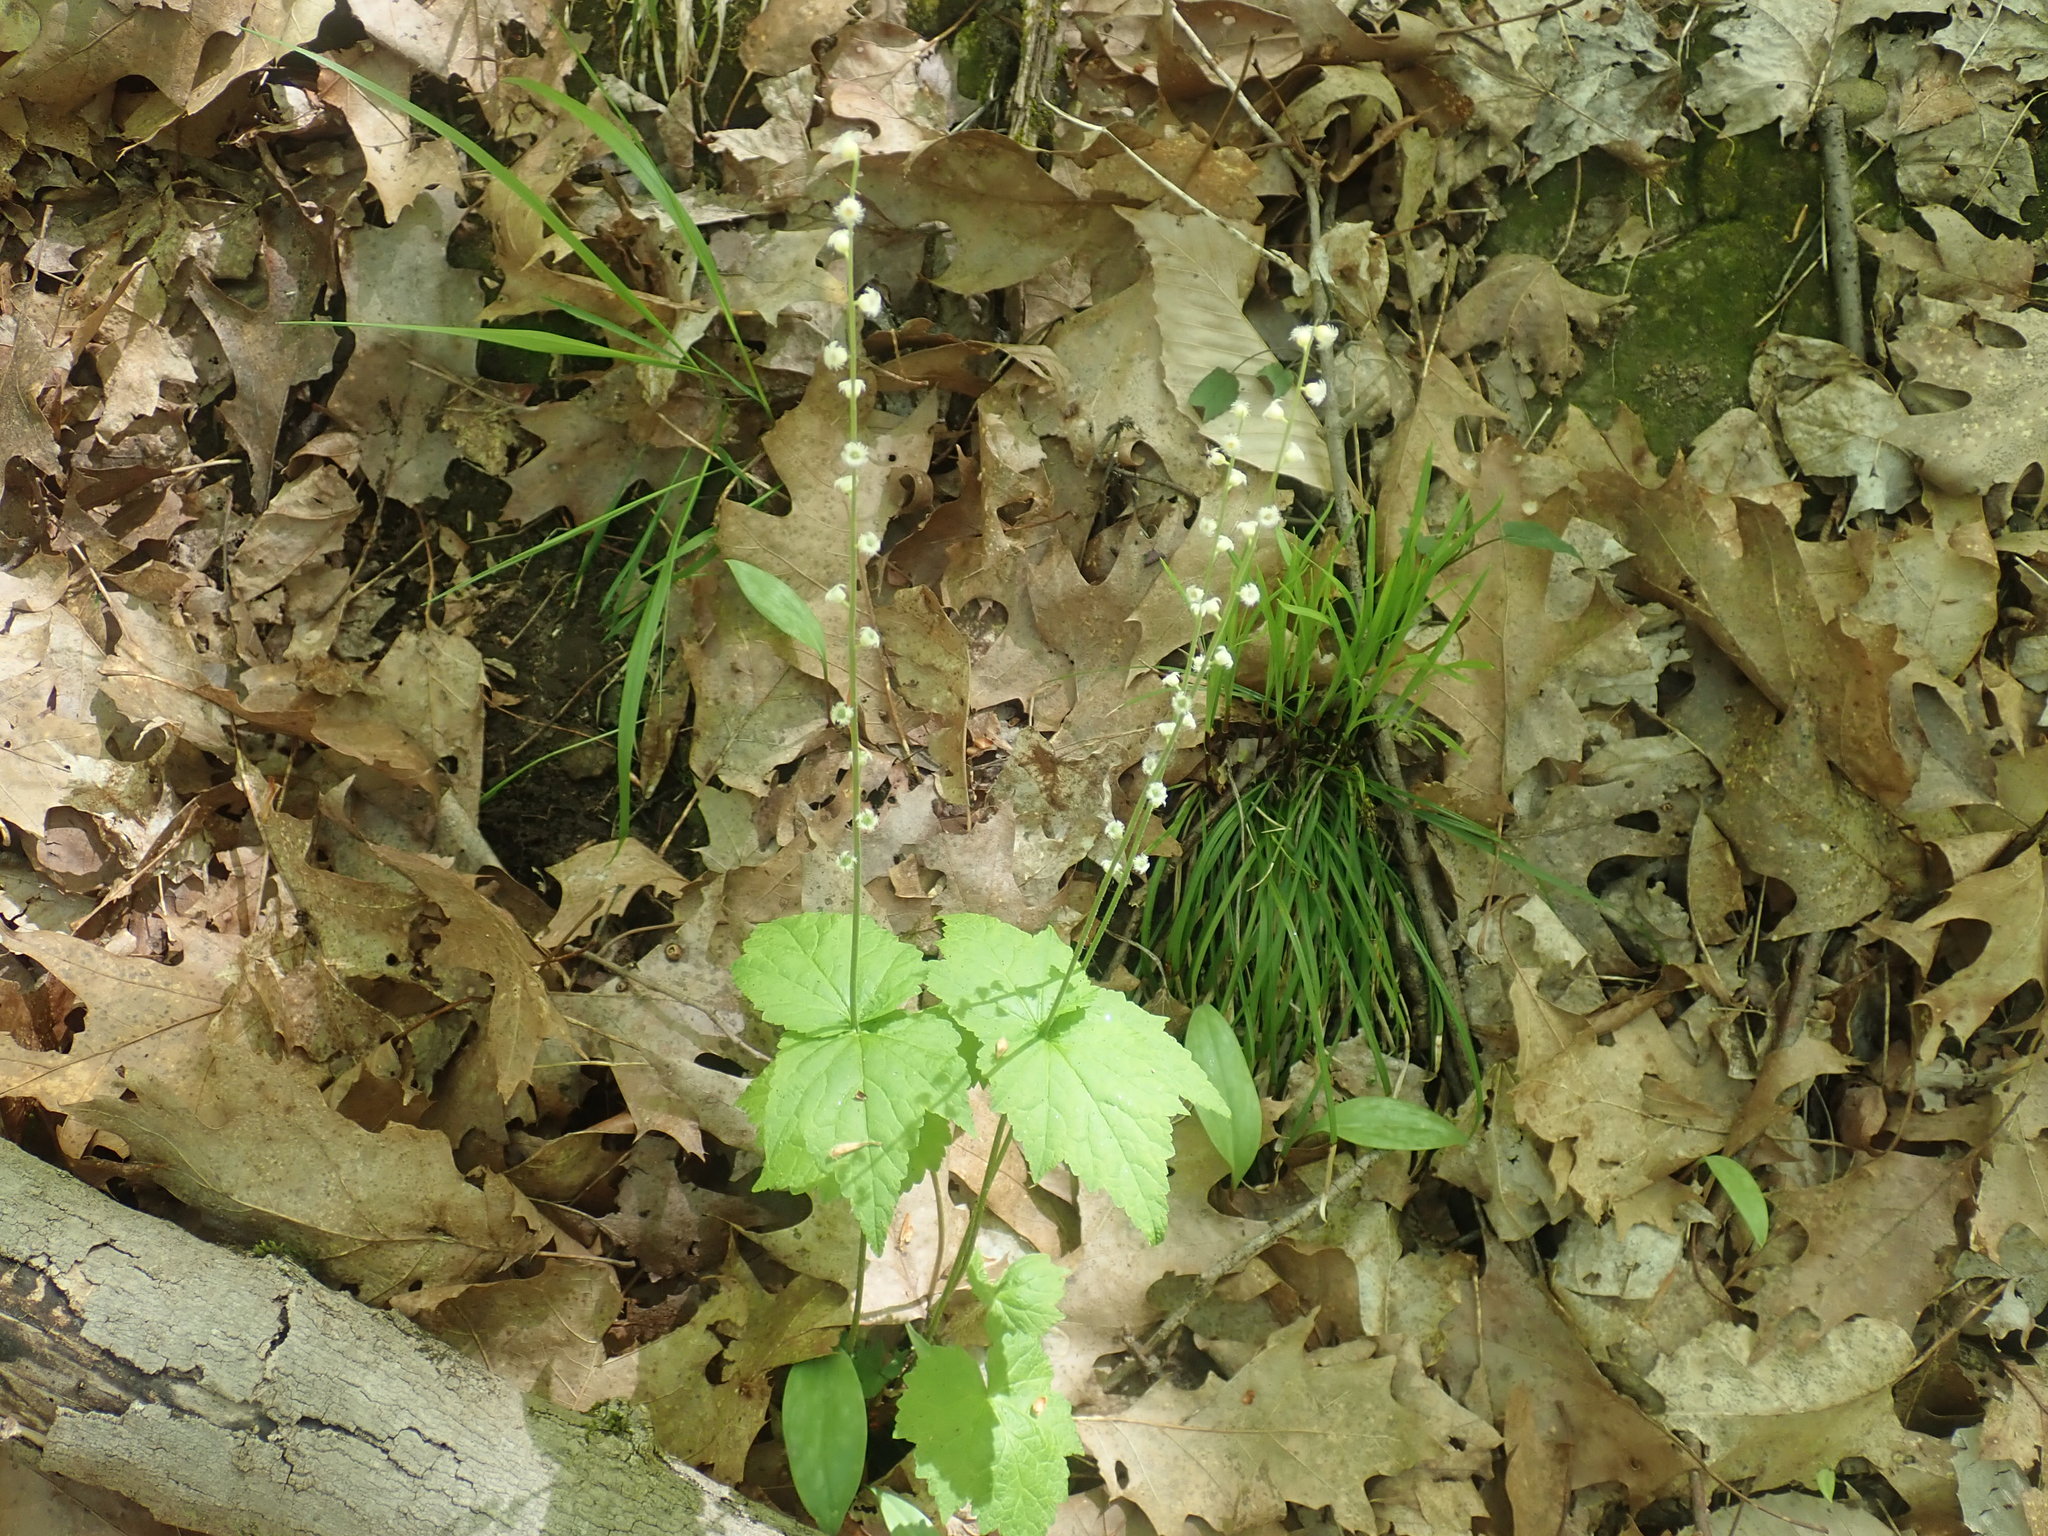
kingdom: Plantae
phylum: Tracheophyta
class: Magnoliopsida
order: Saxifragales
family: Saxifragaceae
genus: Mitella
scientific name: Mitella diphylla
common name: Coolwort
